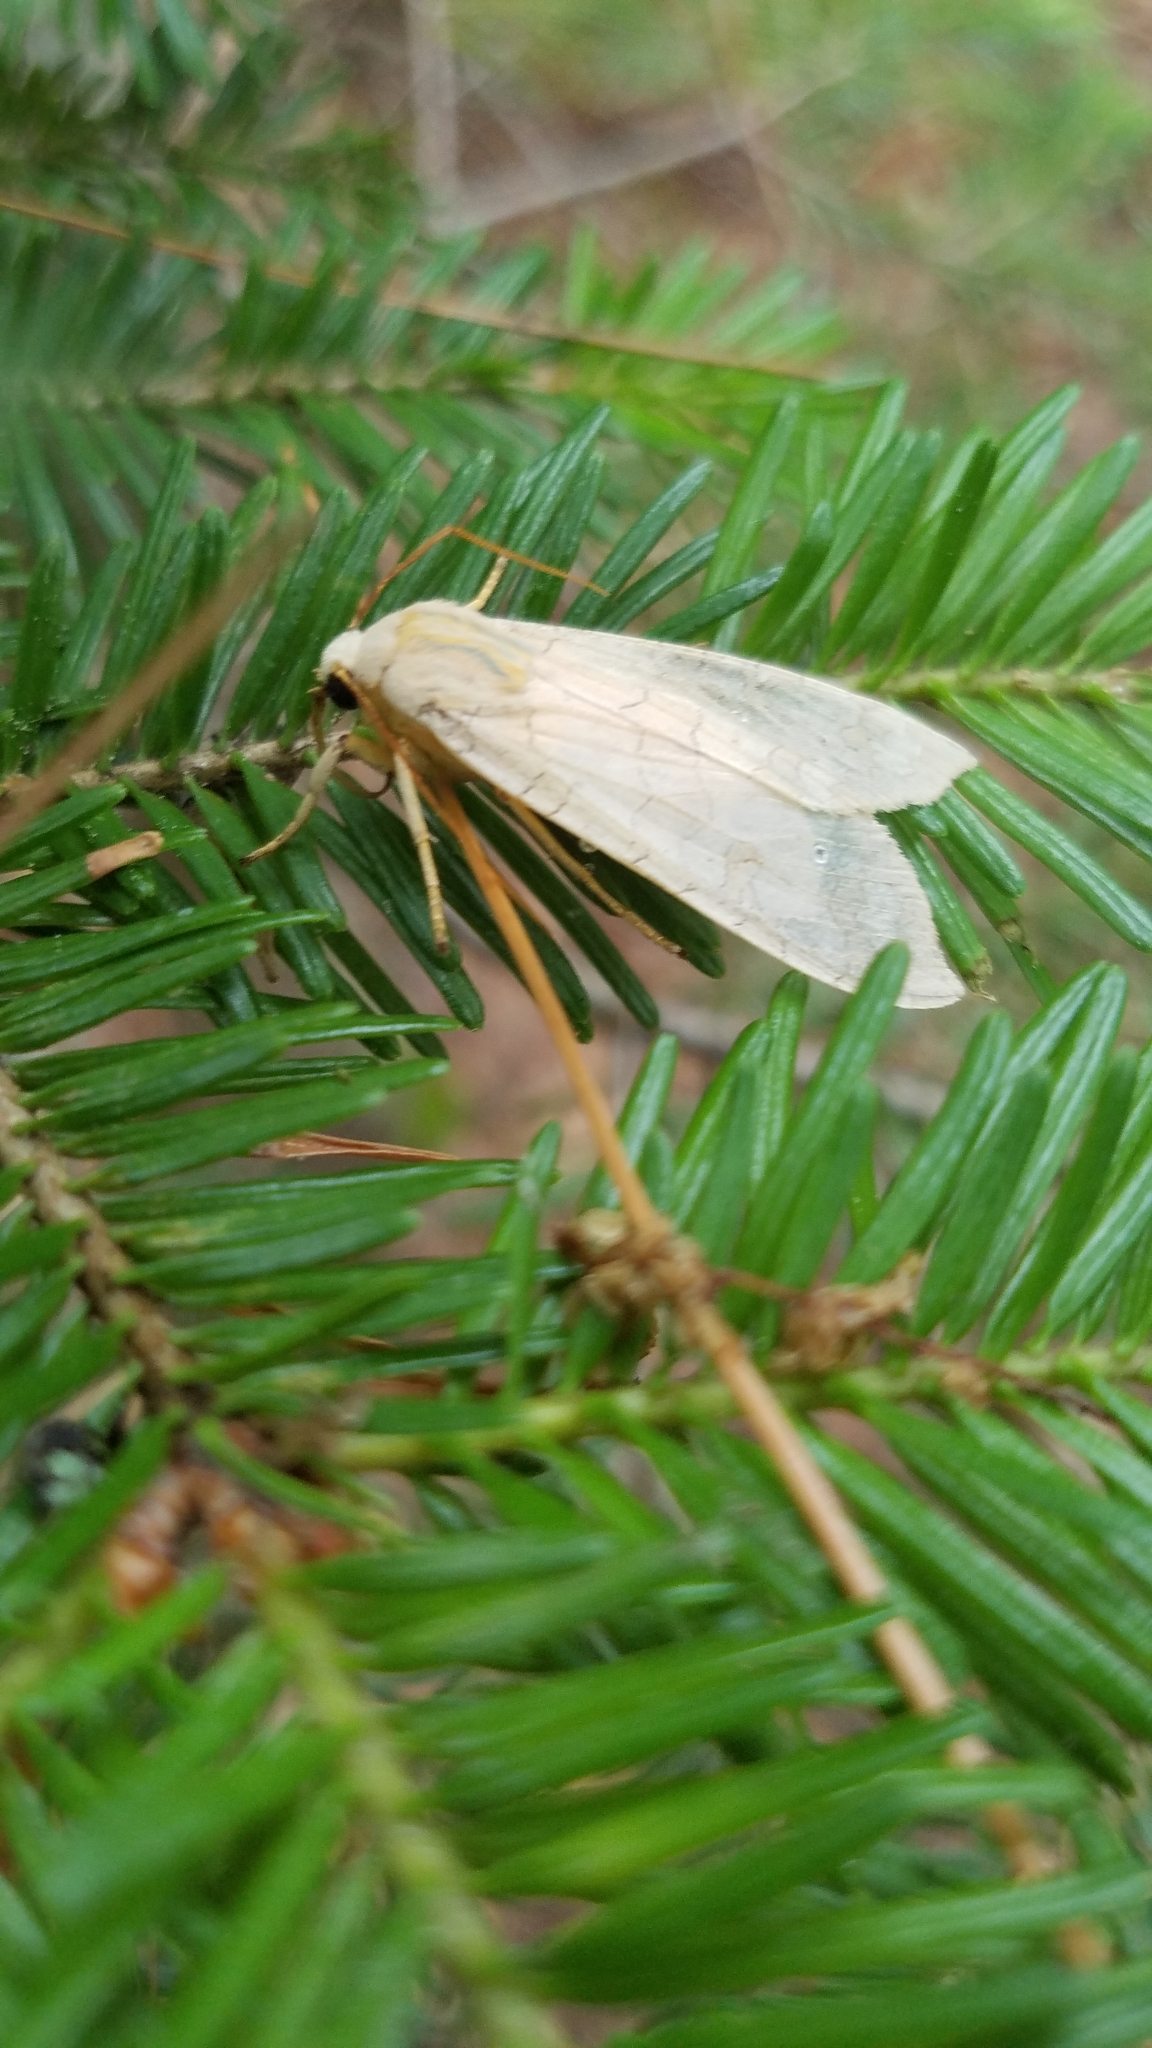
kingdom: Animalia
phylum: Arthropoda
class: Insecta
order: Lepidoptera
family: Erebidae
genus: Halysidota
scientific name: Halysidota tessellaris
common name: Banded tussock moth
